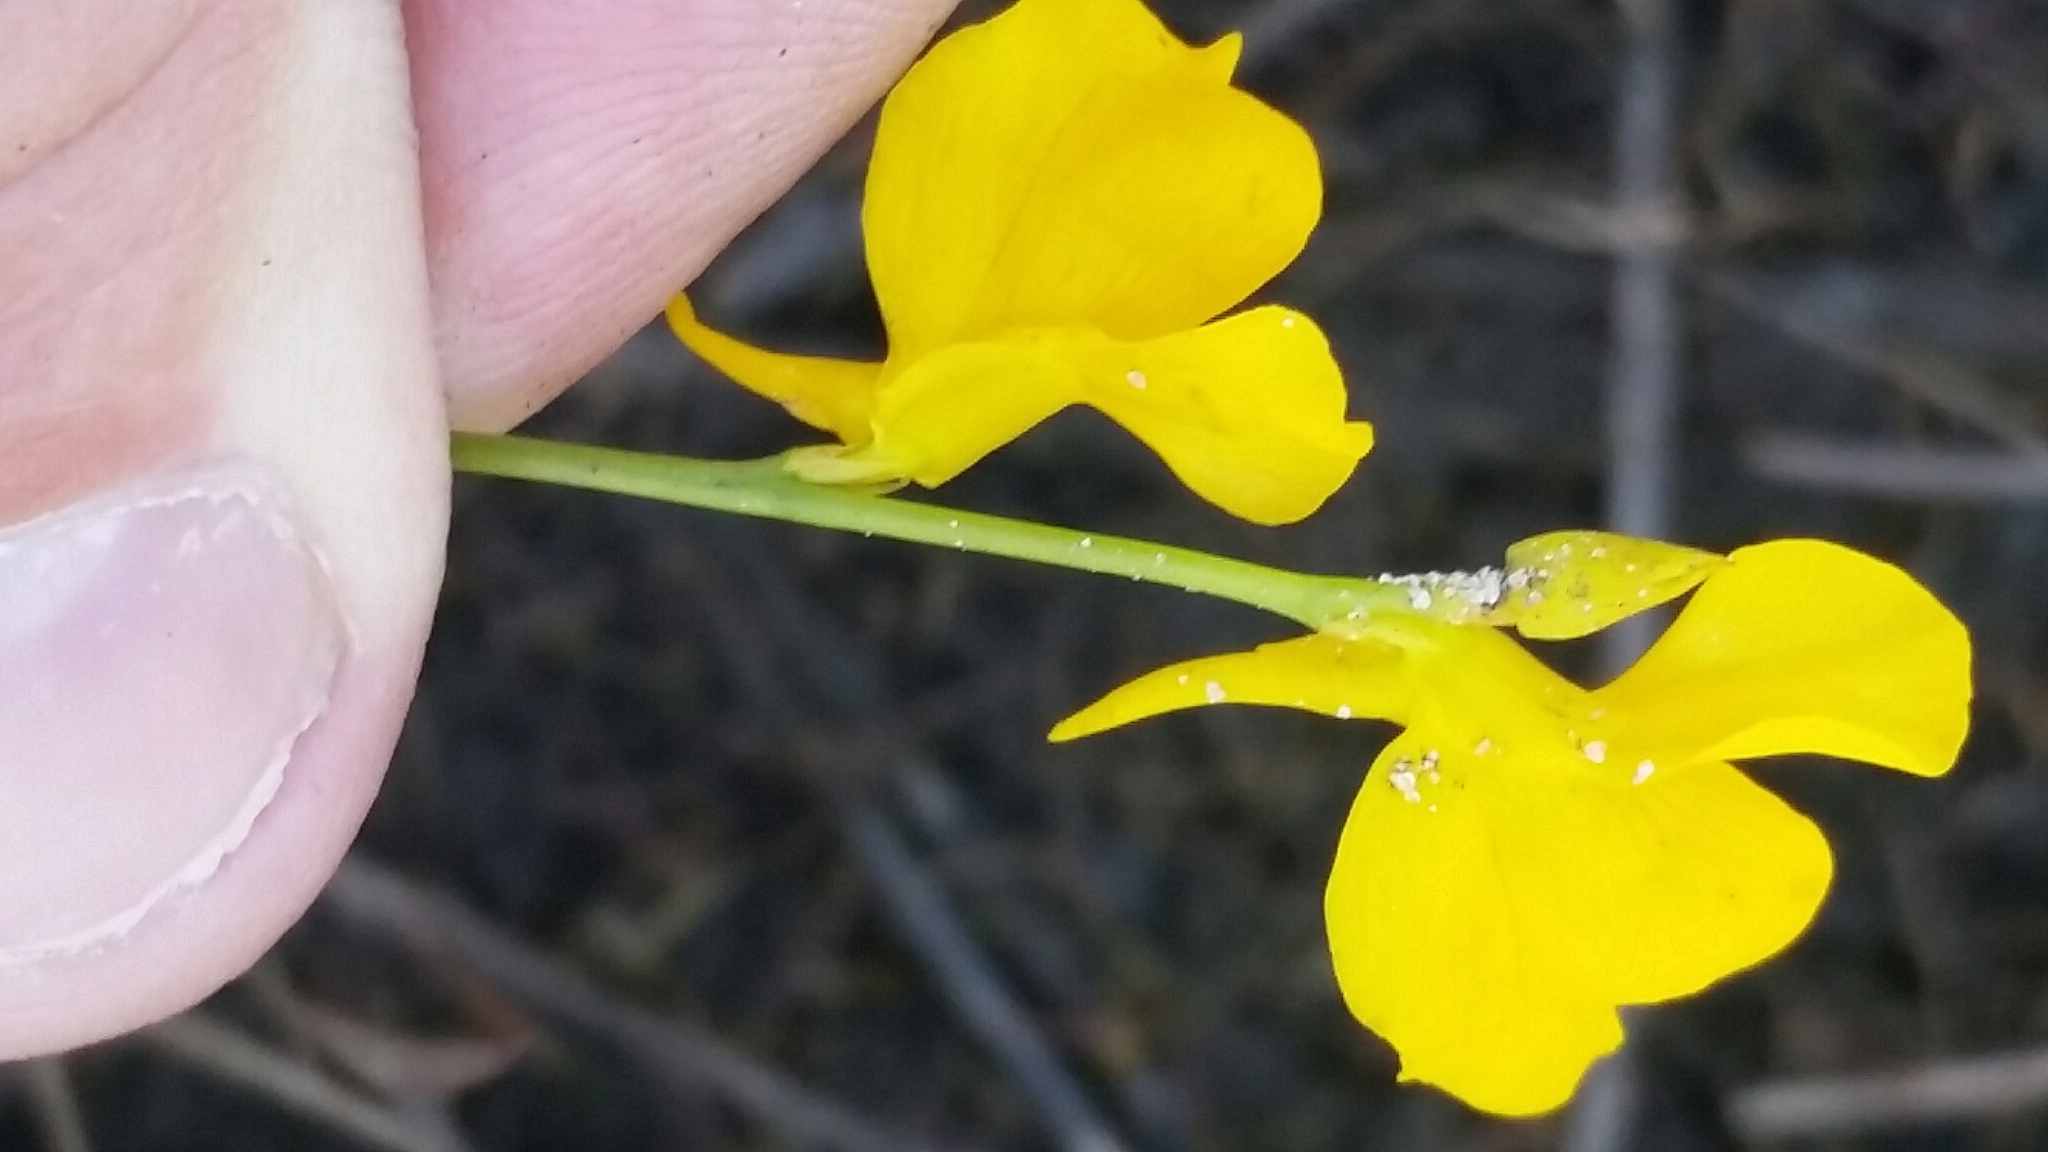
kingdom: Plantae
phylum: Tracheophyta
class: Magnoliopsida
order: Lamiales
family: Lentibulariaceae
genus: Utricularia
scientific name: Utricularia cornuta
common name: Horned bladderwort
